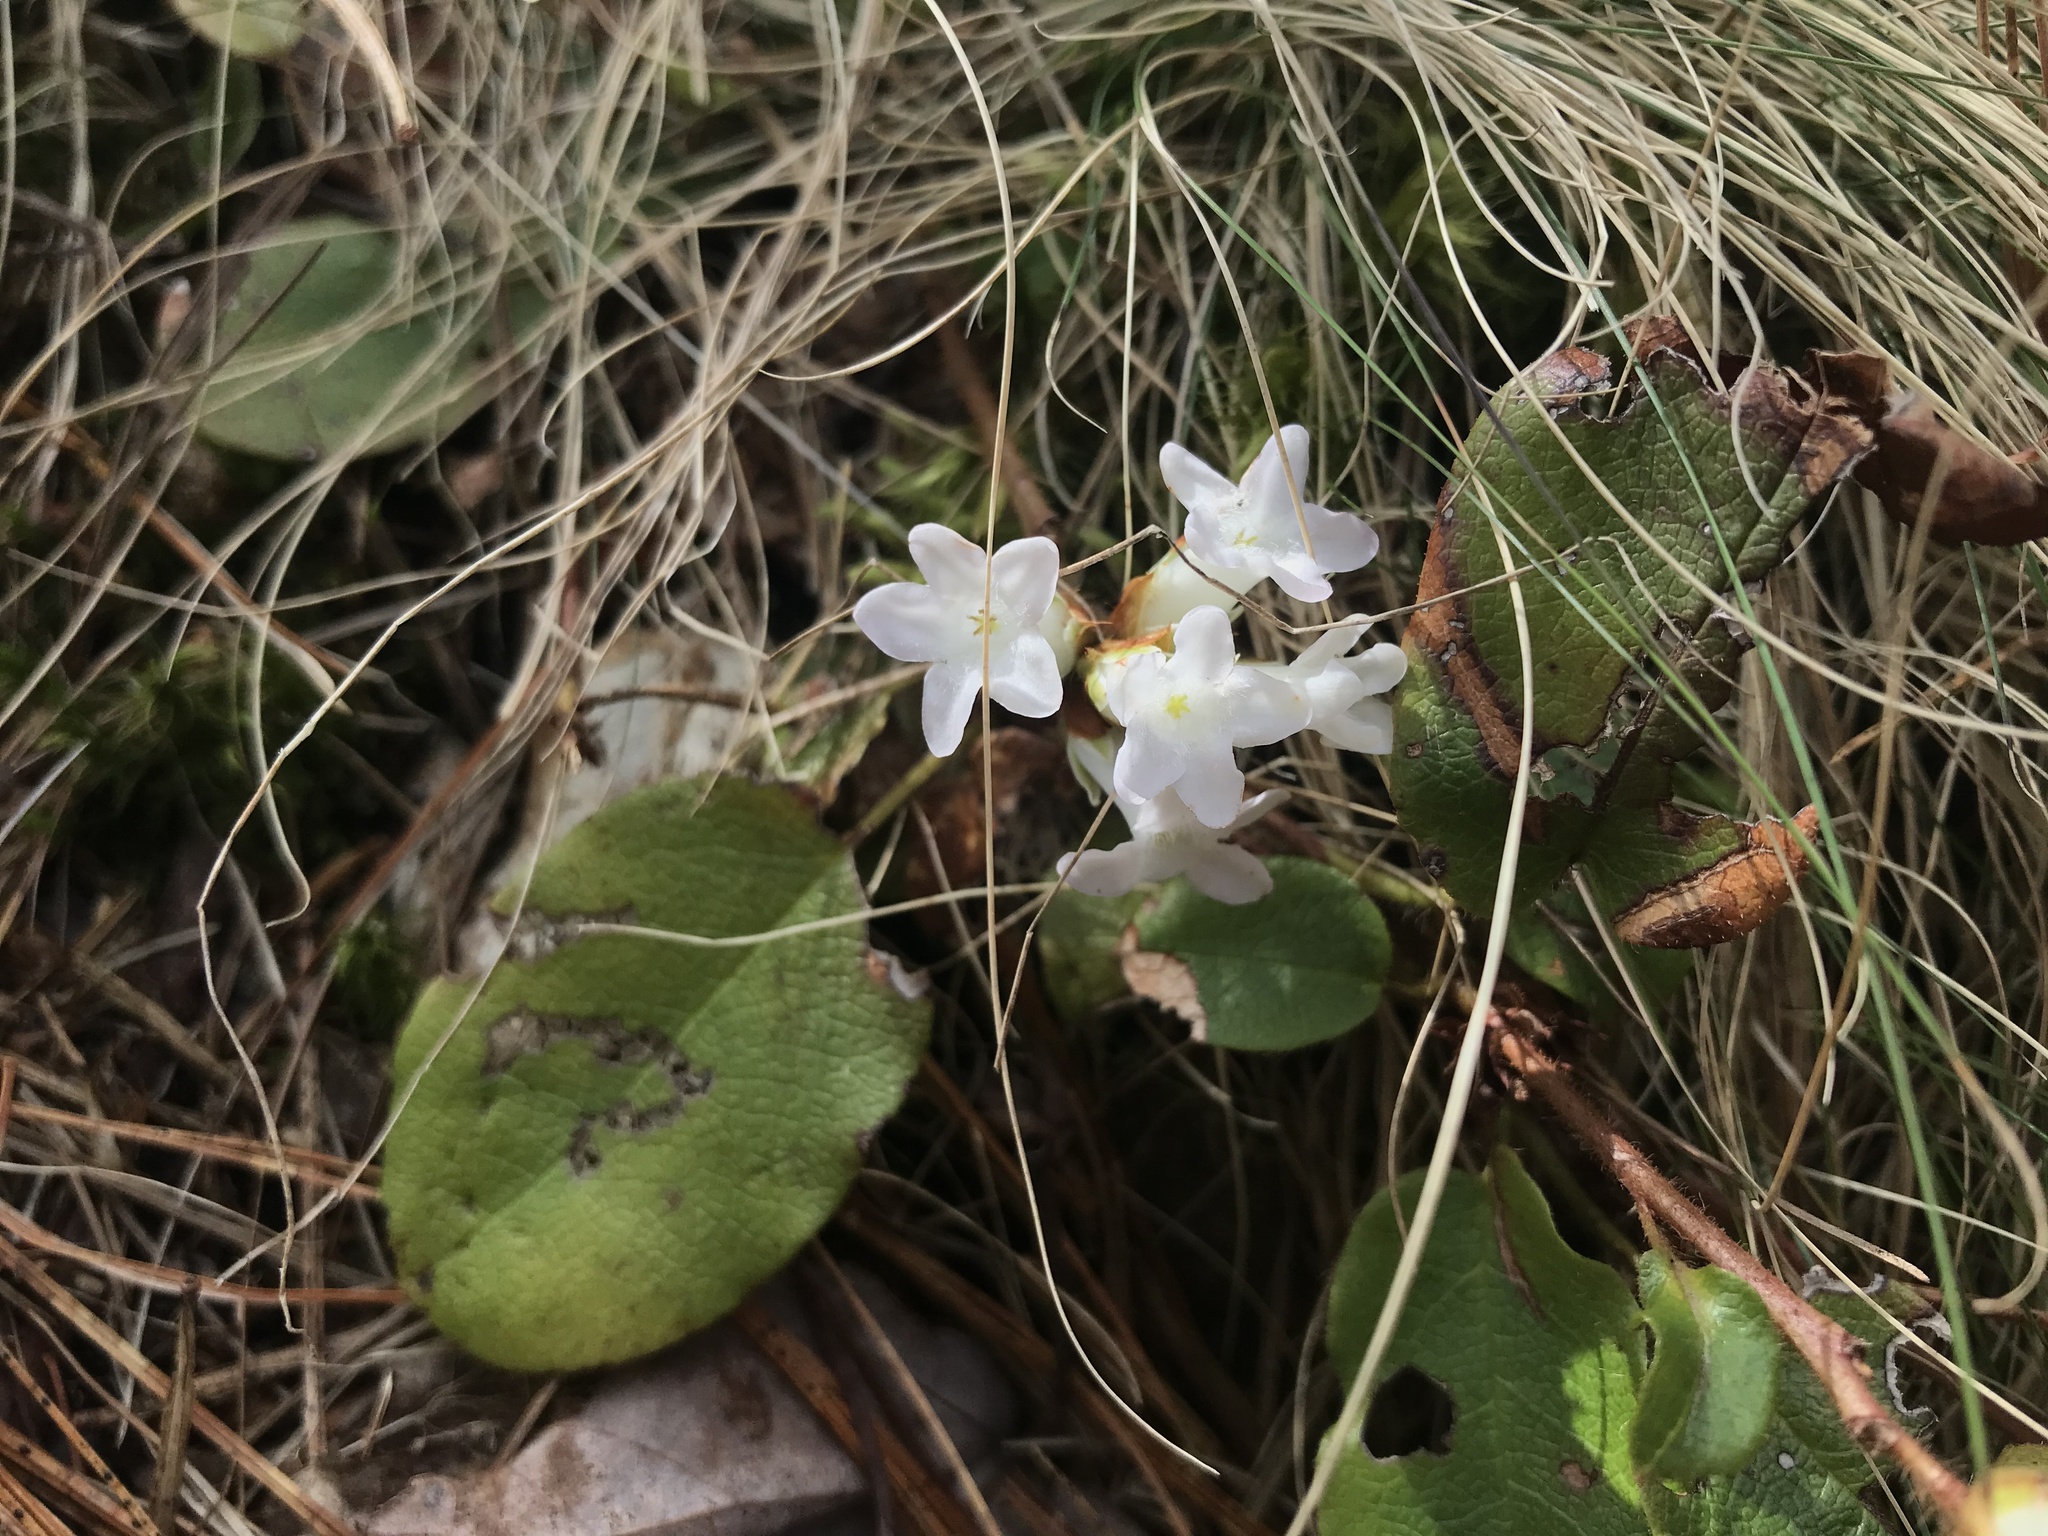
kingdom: Plantae
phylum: Tracheophyta
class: Magnoliopsida
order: Ericales
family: Ericaceae
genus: Epigaea
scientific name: Epigaea repens
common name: Gravelroot
